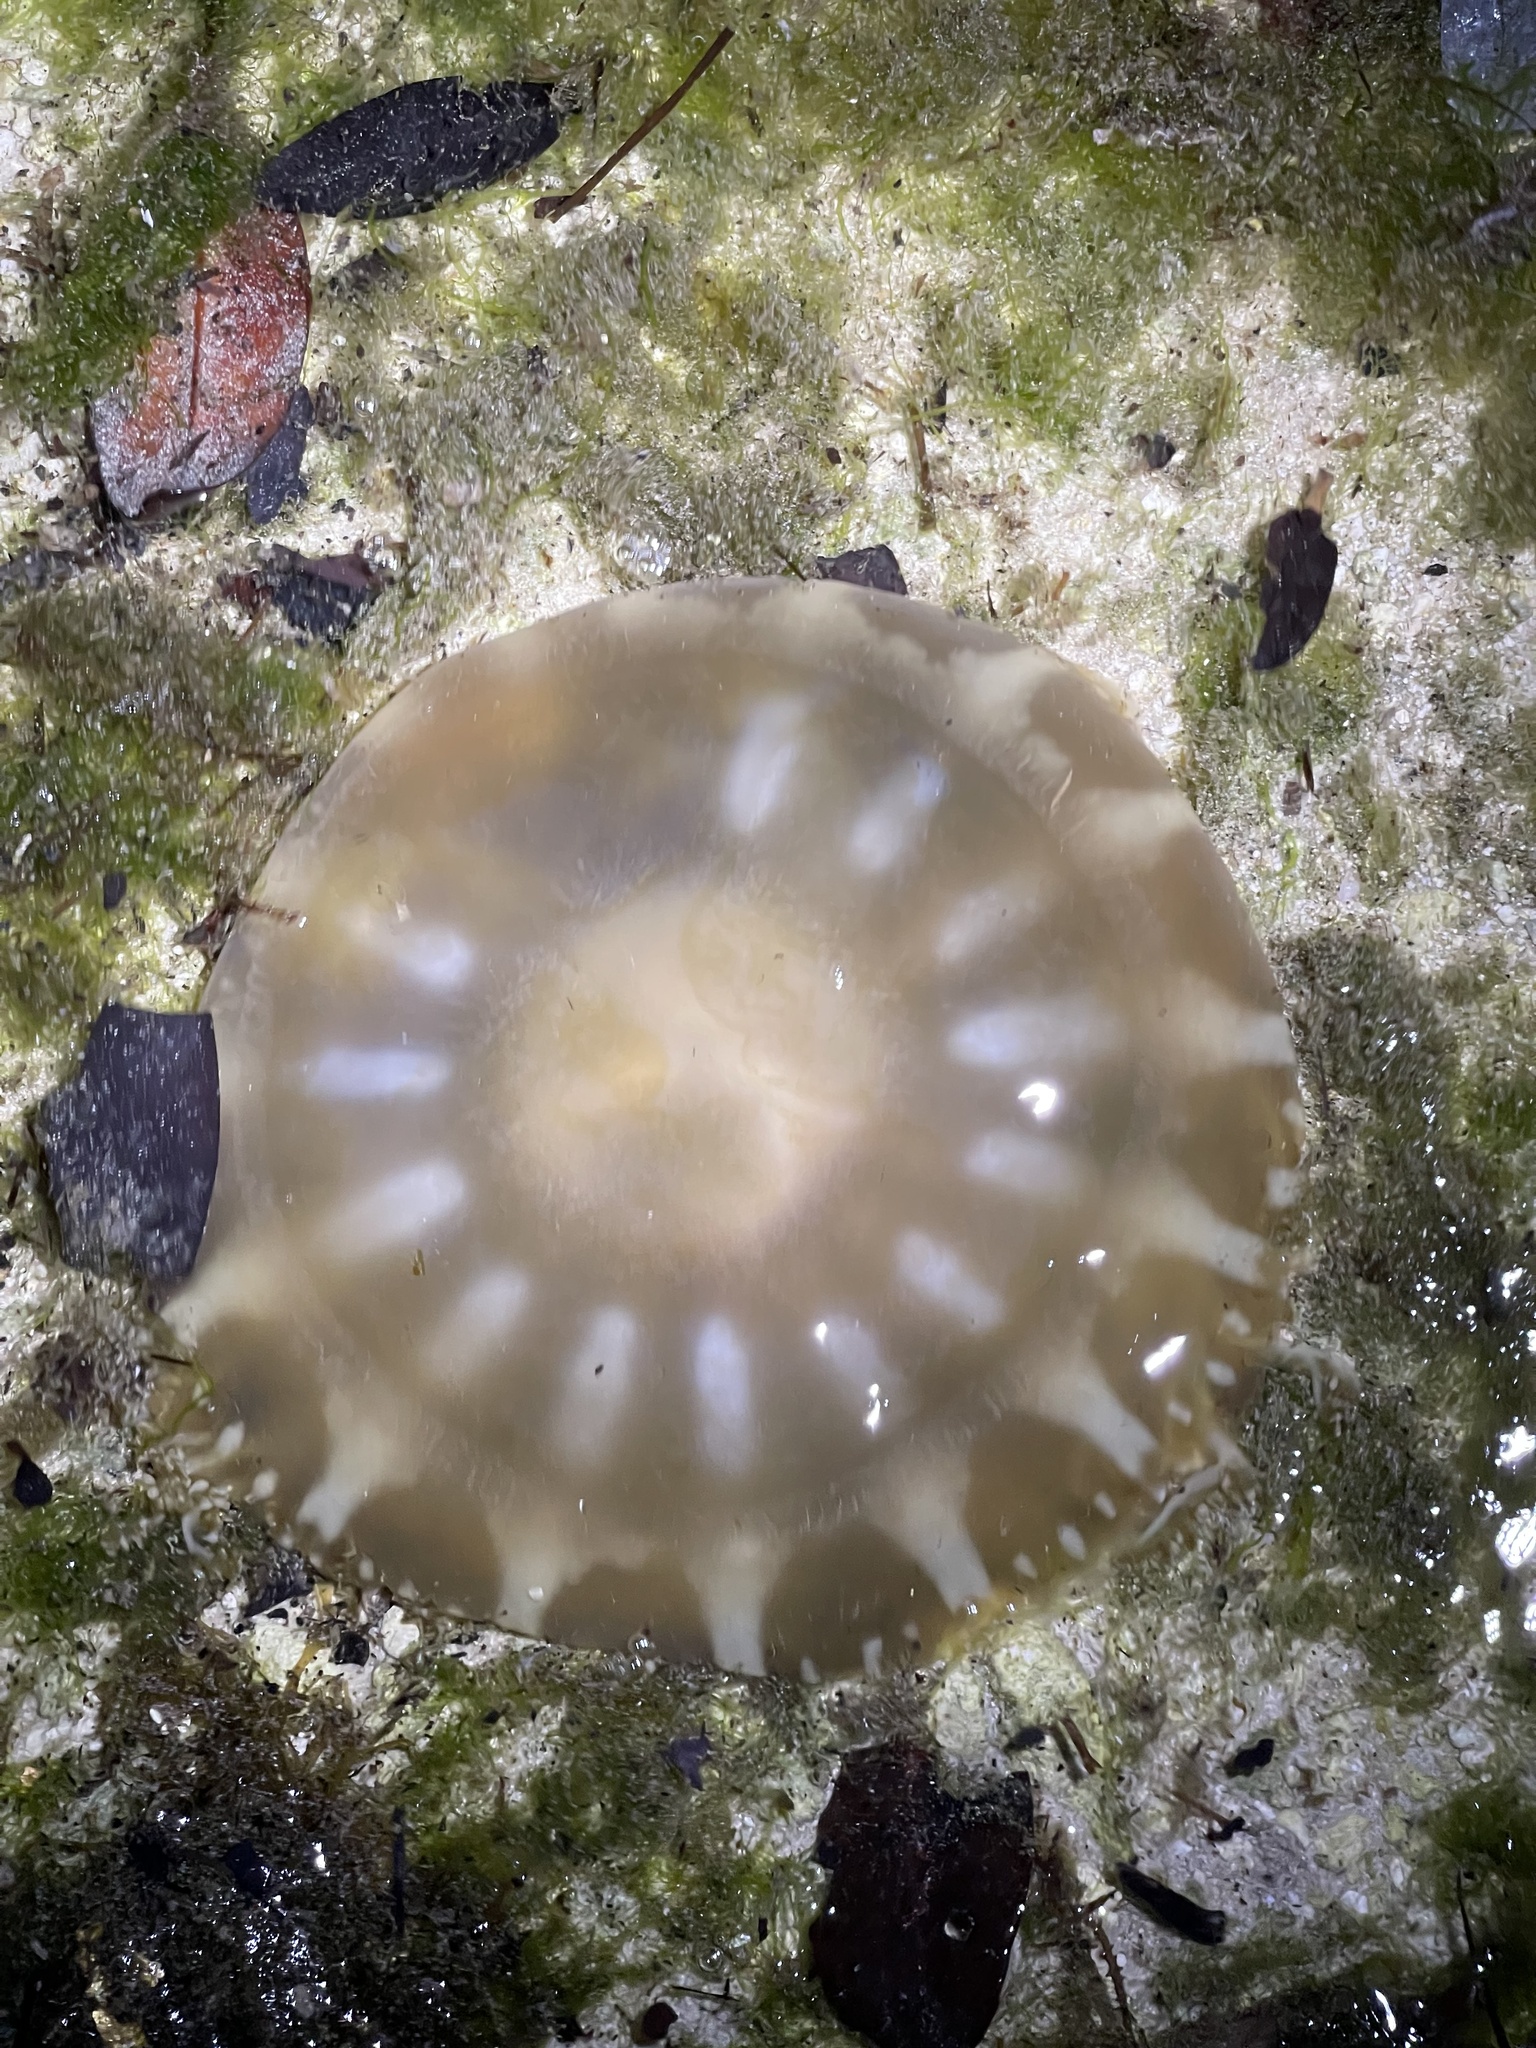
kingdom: Animalia
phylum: Cnidaria
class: Scyphozoa
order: Rhizostomeae
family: Cassiopeidae
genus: Cassiopea
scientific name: Cassiopea andromeda
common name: Upside-down jellyfish
